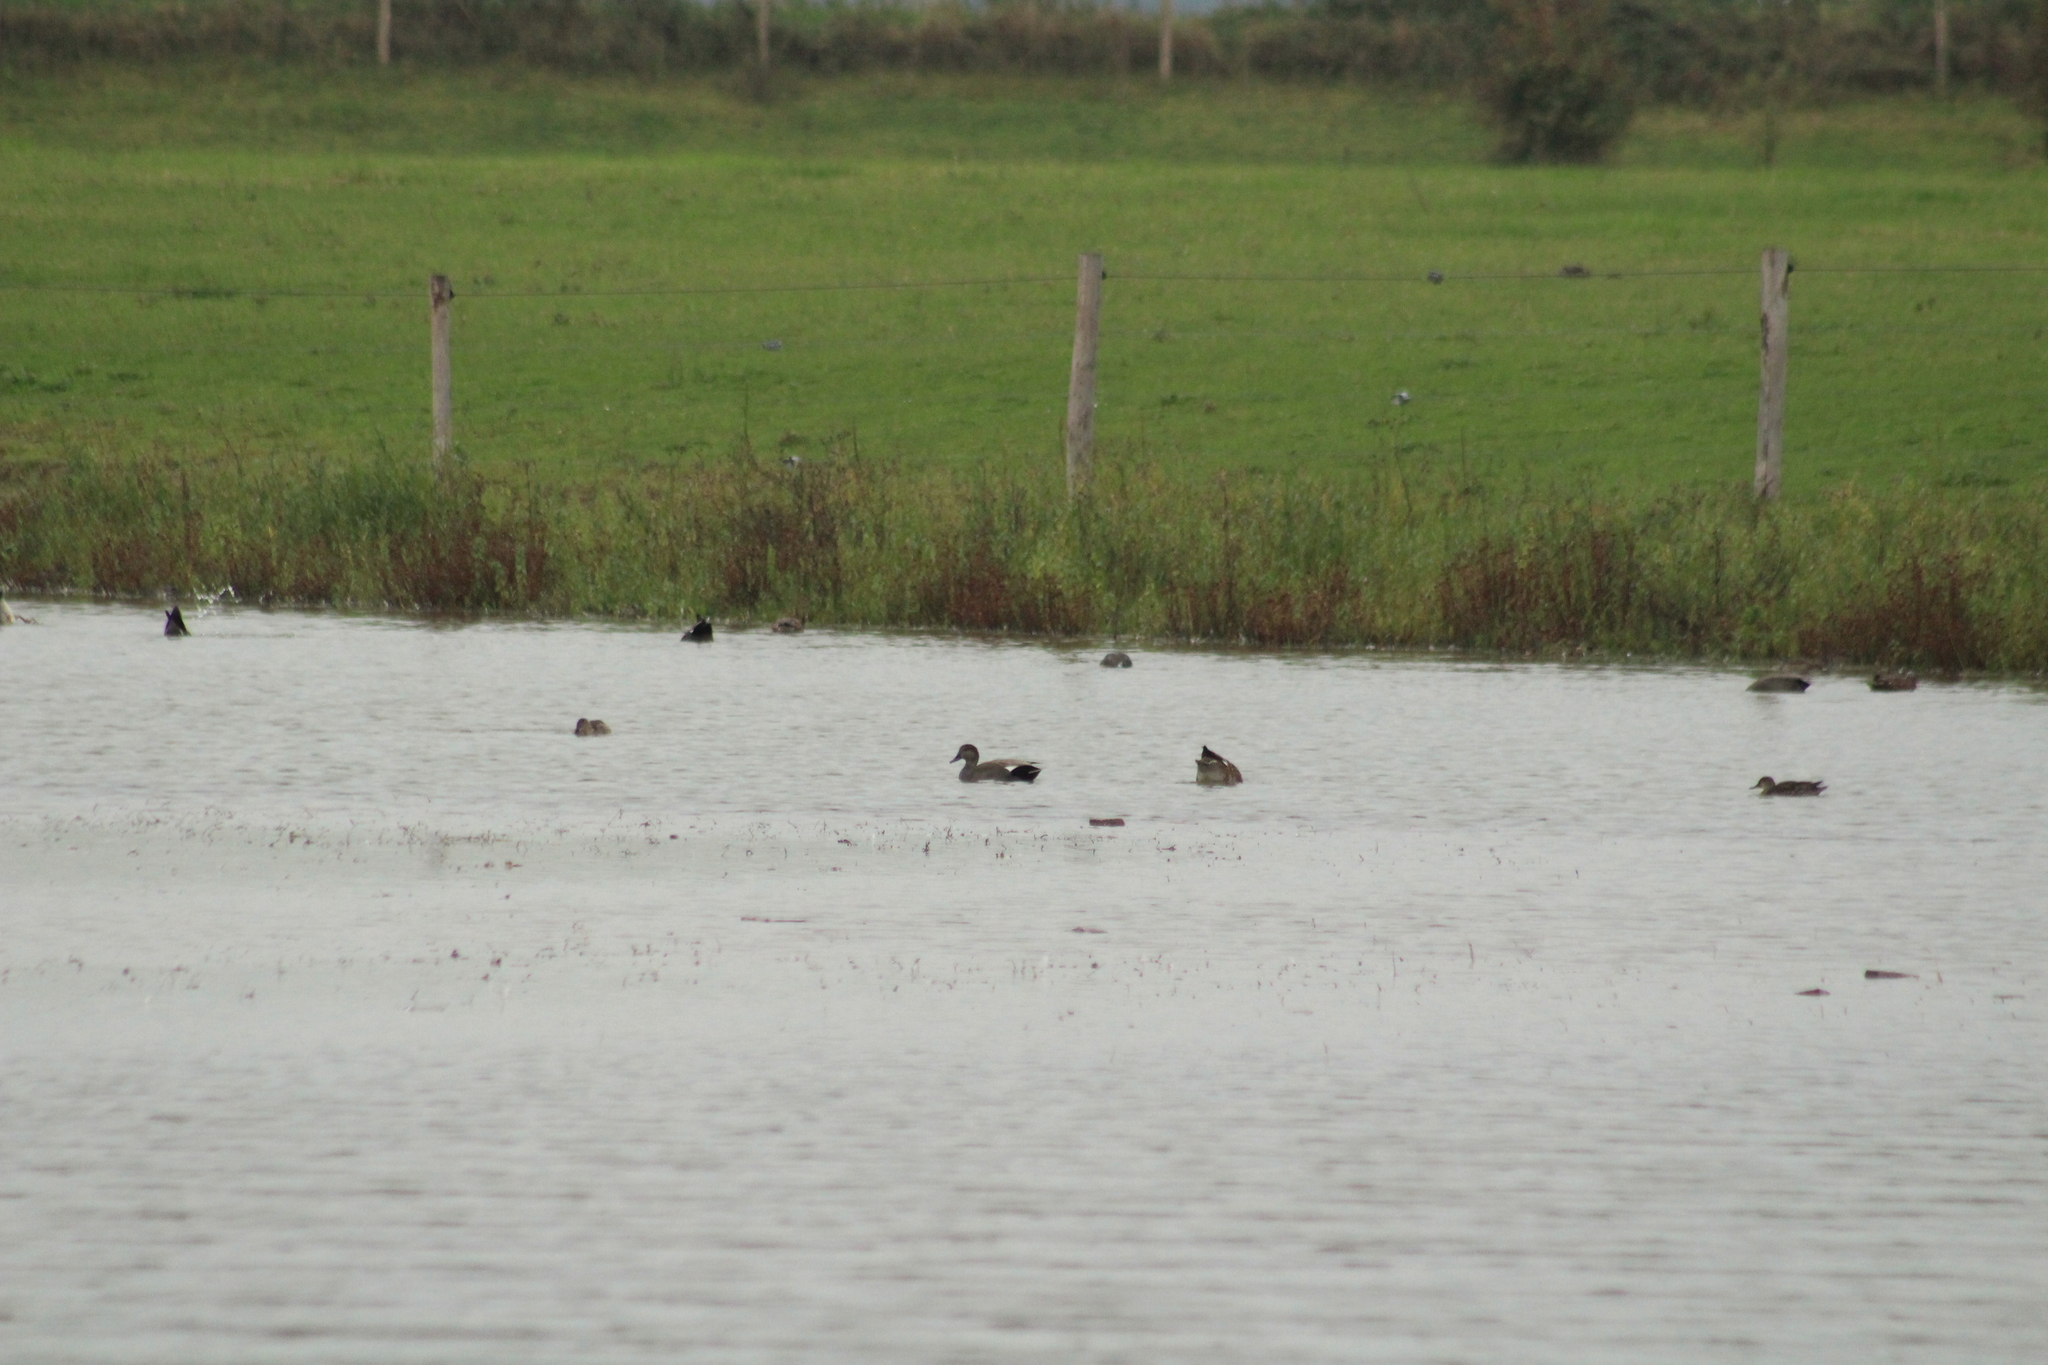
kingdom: Animalia
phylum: Chordata
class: Aves
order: Anseriformes
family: Anatidae
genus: Mareca
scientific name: Mareca strepera
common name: Gadwall
